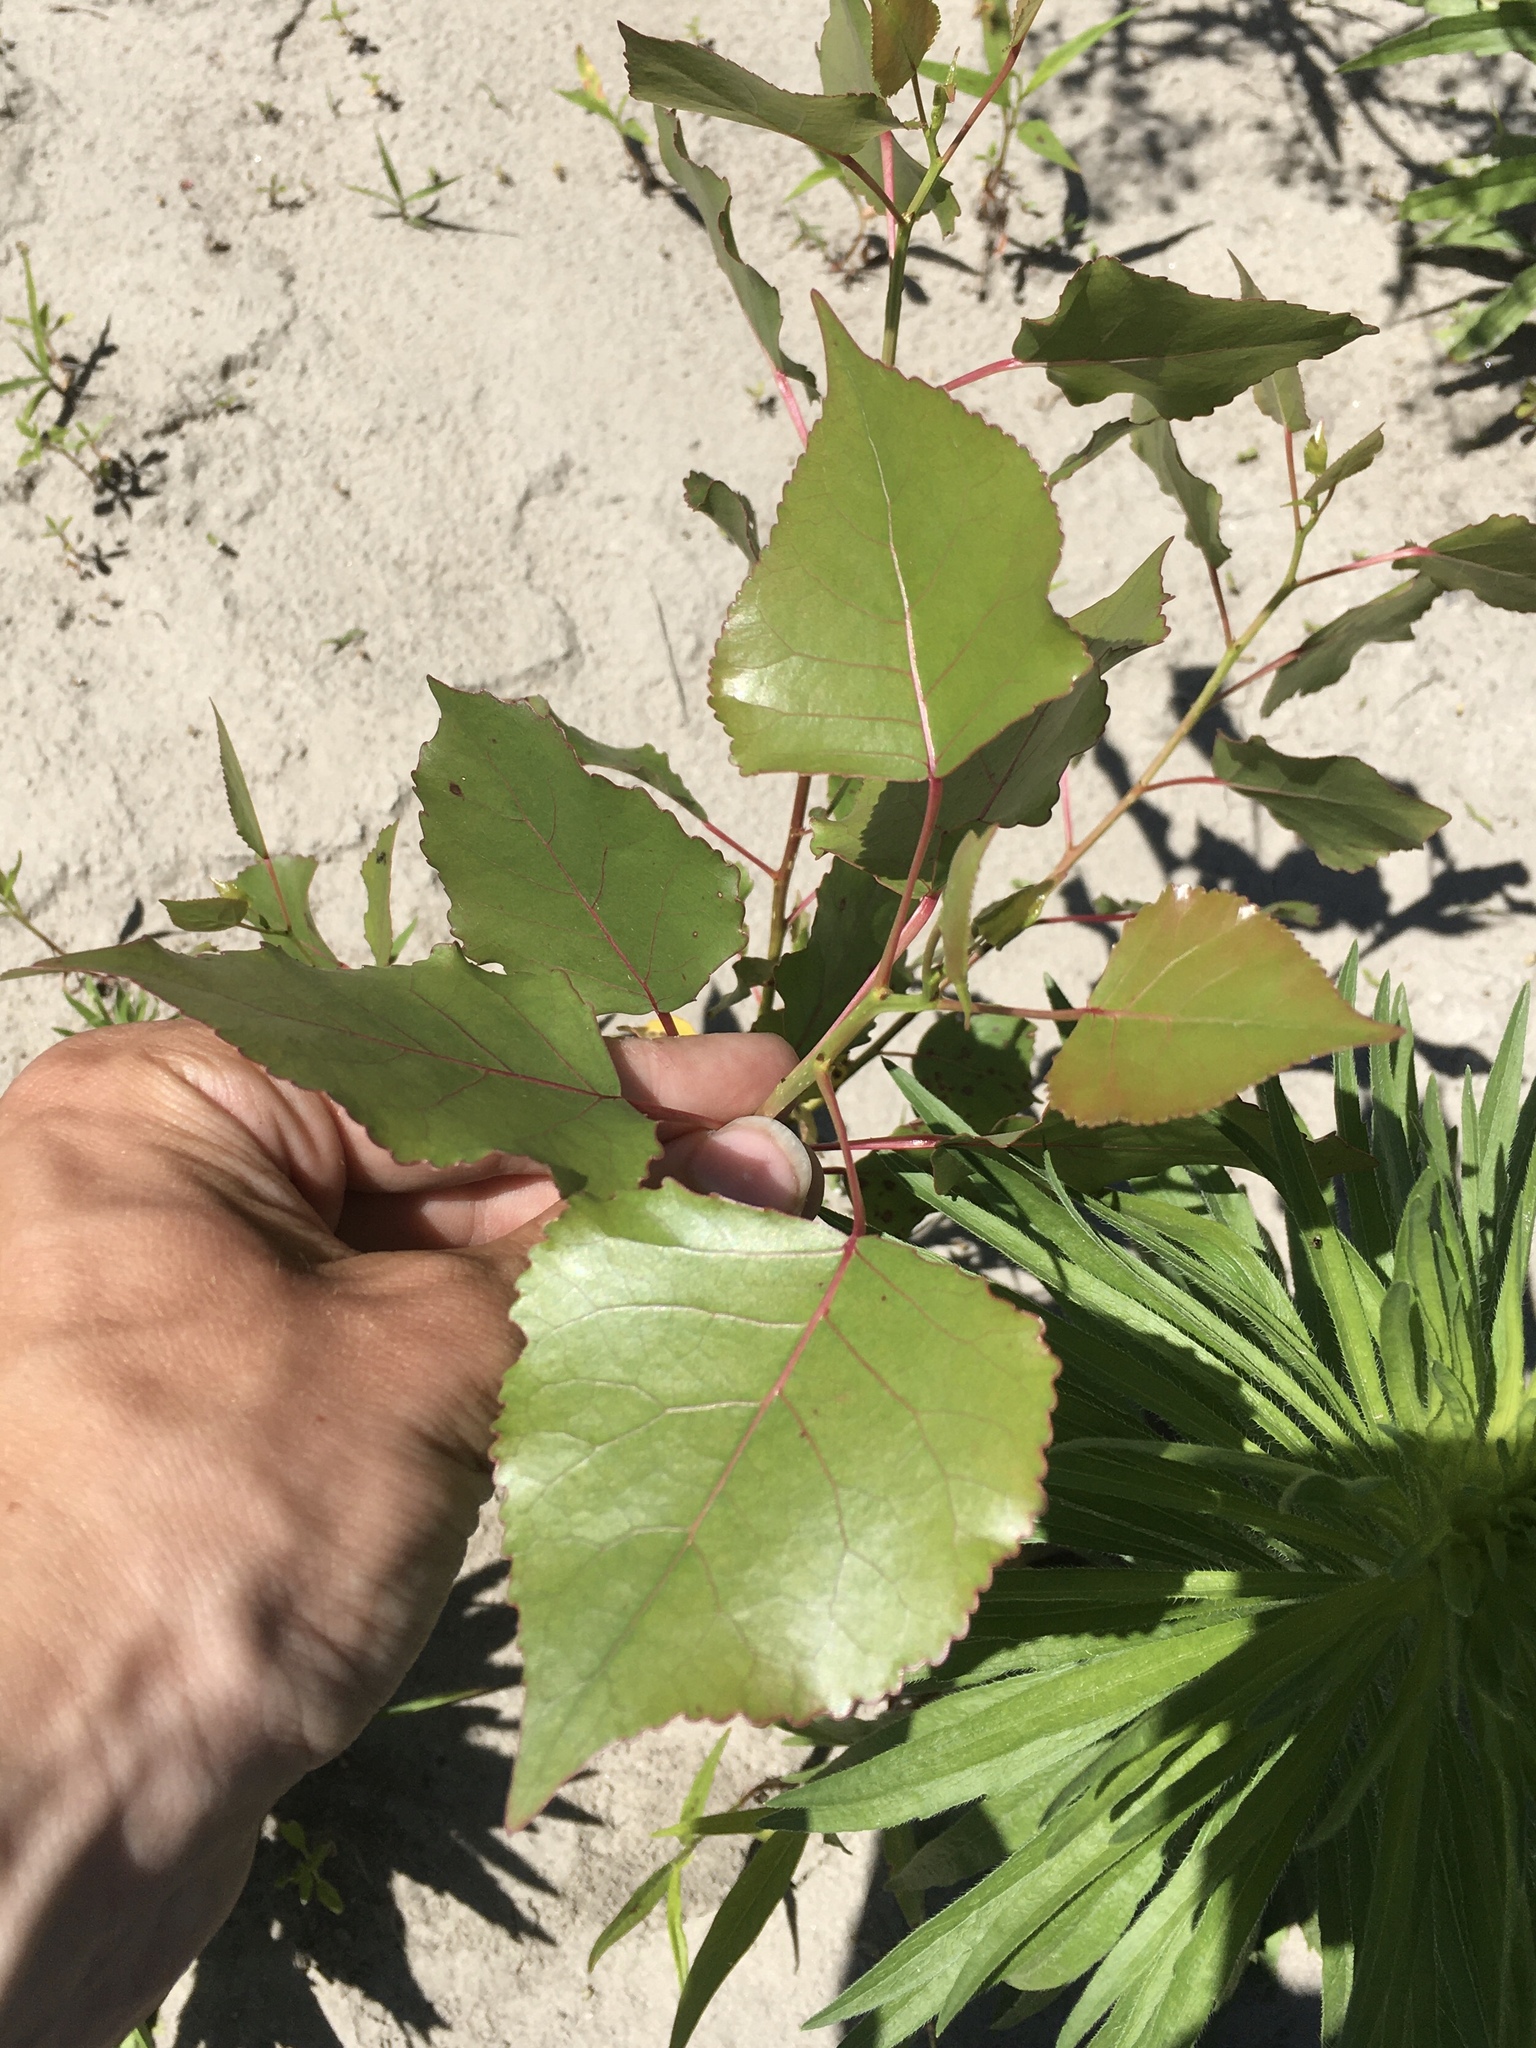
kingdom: Plantae
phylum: Tracheophyta
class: Magnoliopsida
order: Malpighiales
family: Salicaceae
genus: Populus
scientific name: Populus deltoides
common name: Eastern cottonwood
